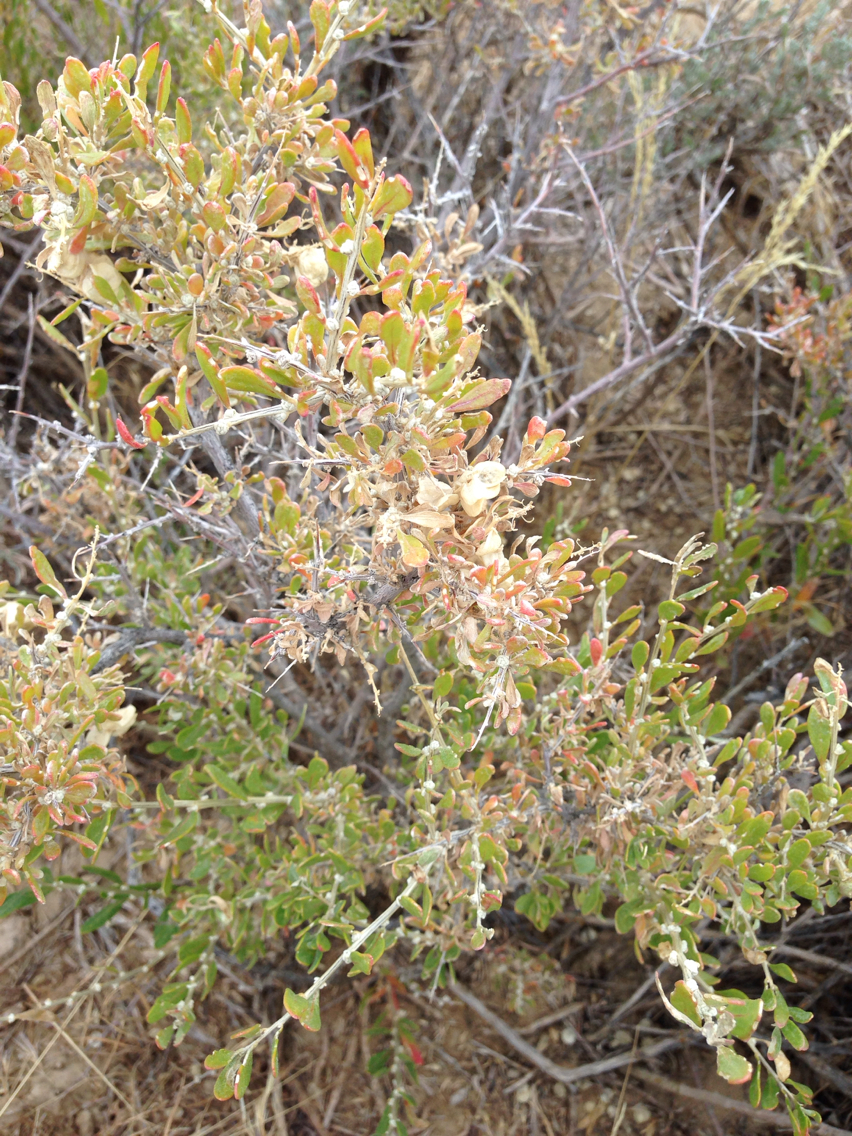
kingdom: Plantae
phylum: Tracheophyta
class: Magnoliopsida
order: Caryophyllales
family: Amaranthaceae
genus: Grayia
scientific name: Grayia spinosa
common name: Spiny hopsage
